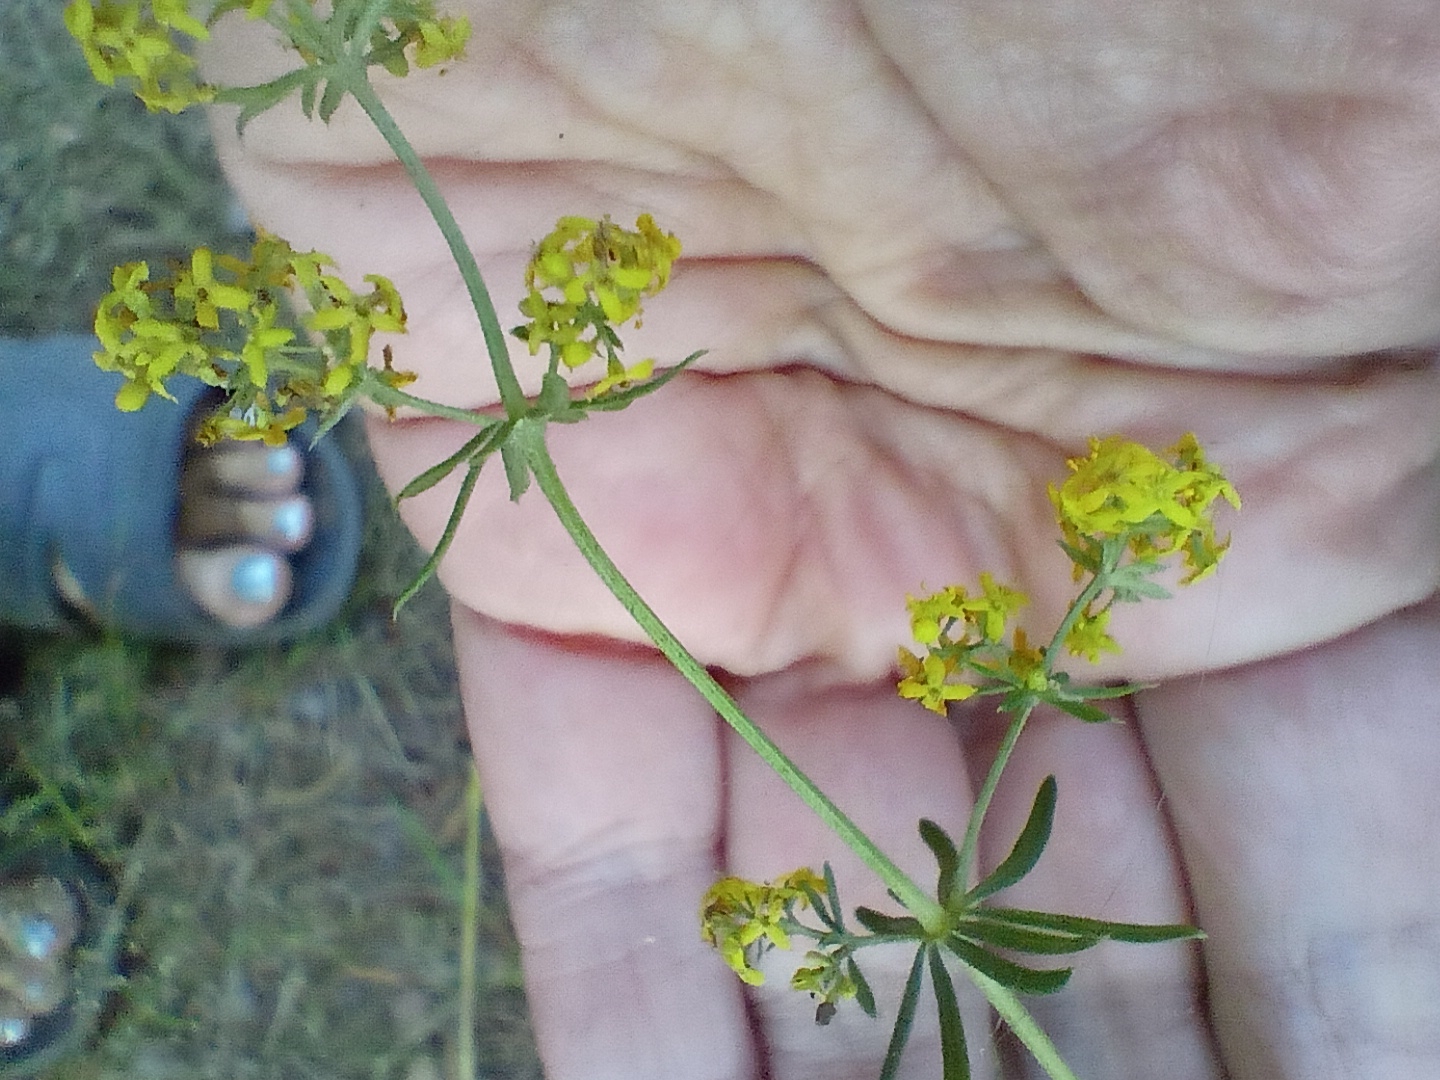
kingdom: Plantae
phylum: Tracheophyta
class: Magnoliopsida
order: Gentianales
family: Rubiaceae
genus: Galium
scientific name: Galium verum
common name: Lady's bedstraw
